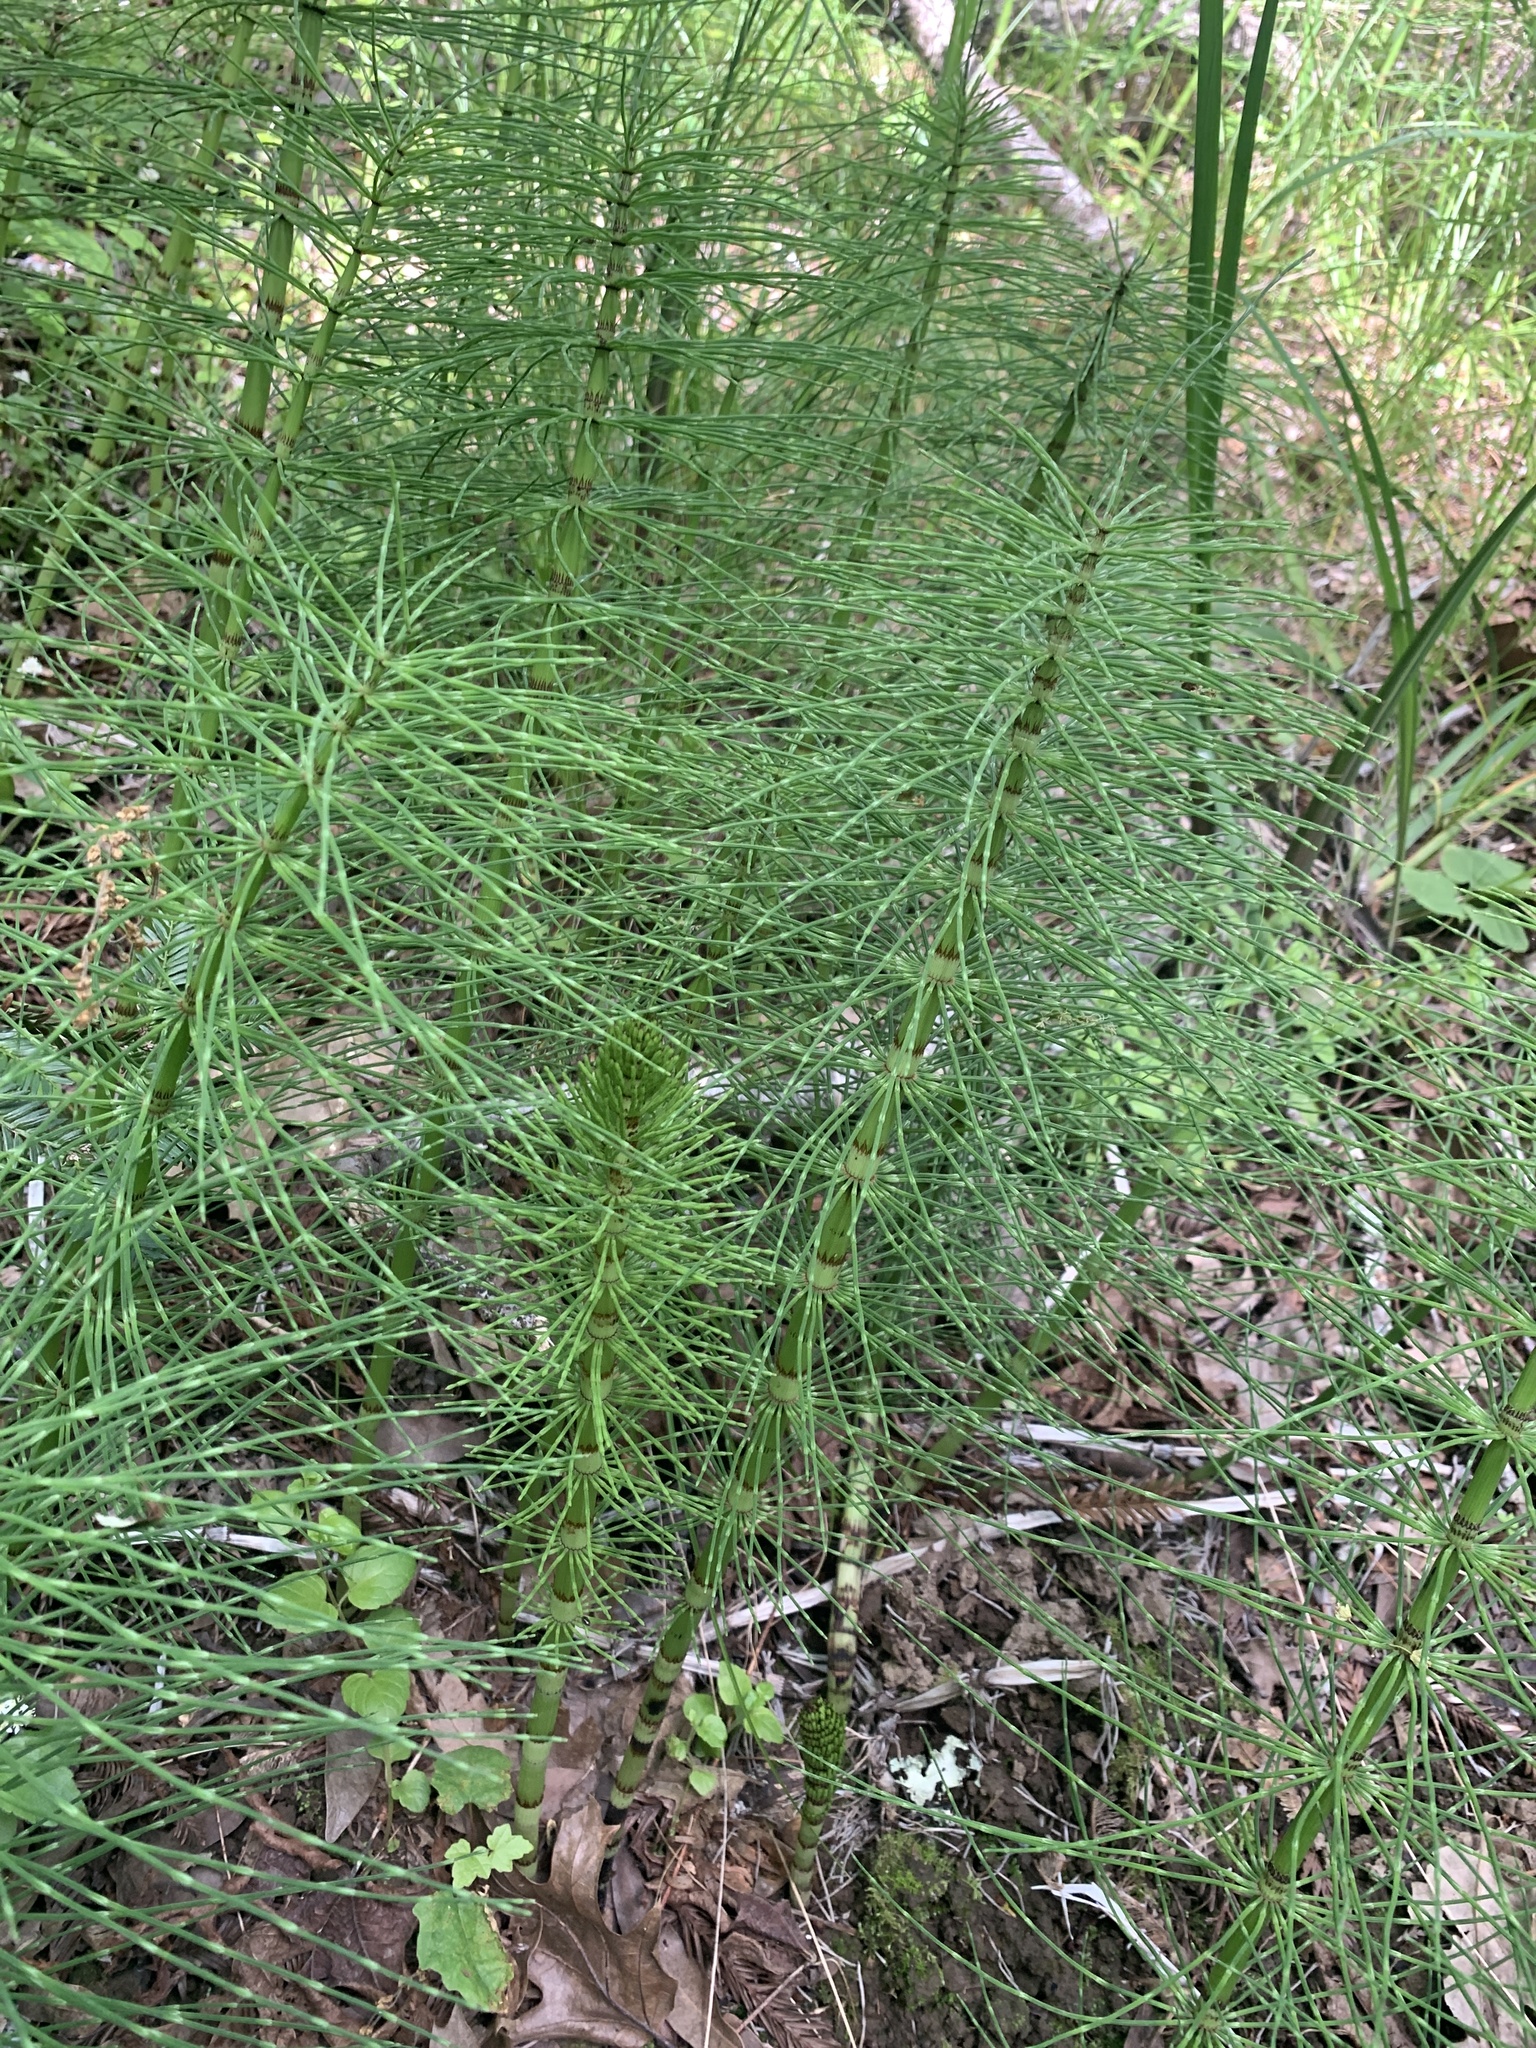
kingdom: Plantae
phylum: Tracheophyta
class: Polypodiopsida
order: Equisetales
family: Equisetaceae
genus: Equisetum
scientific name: Equisetum telmateia
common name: Great horsetail
